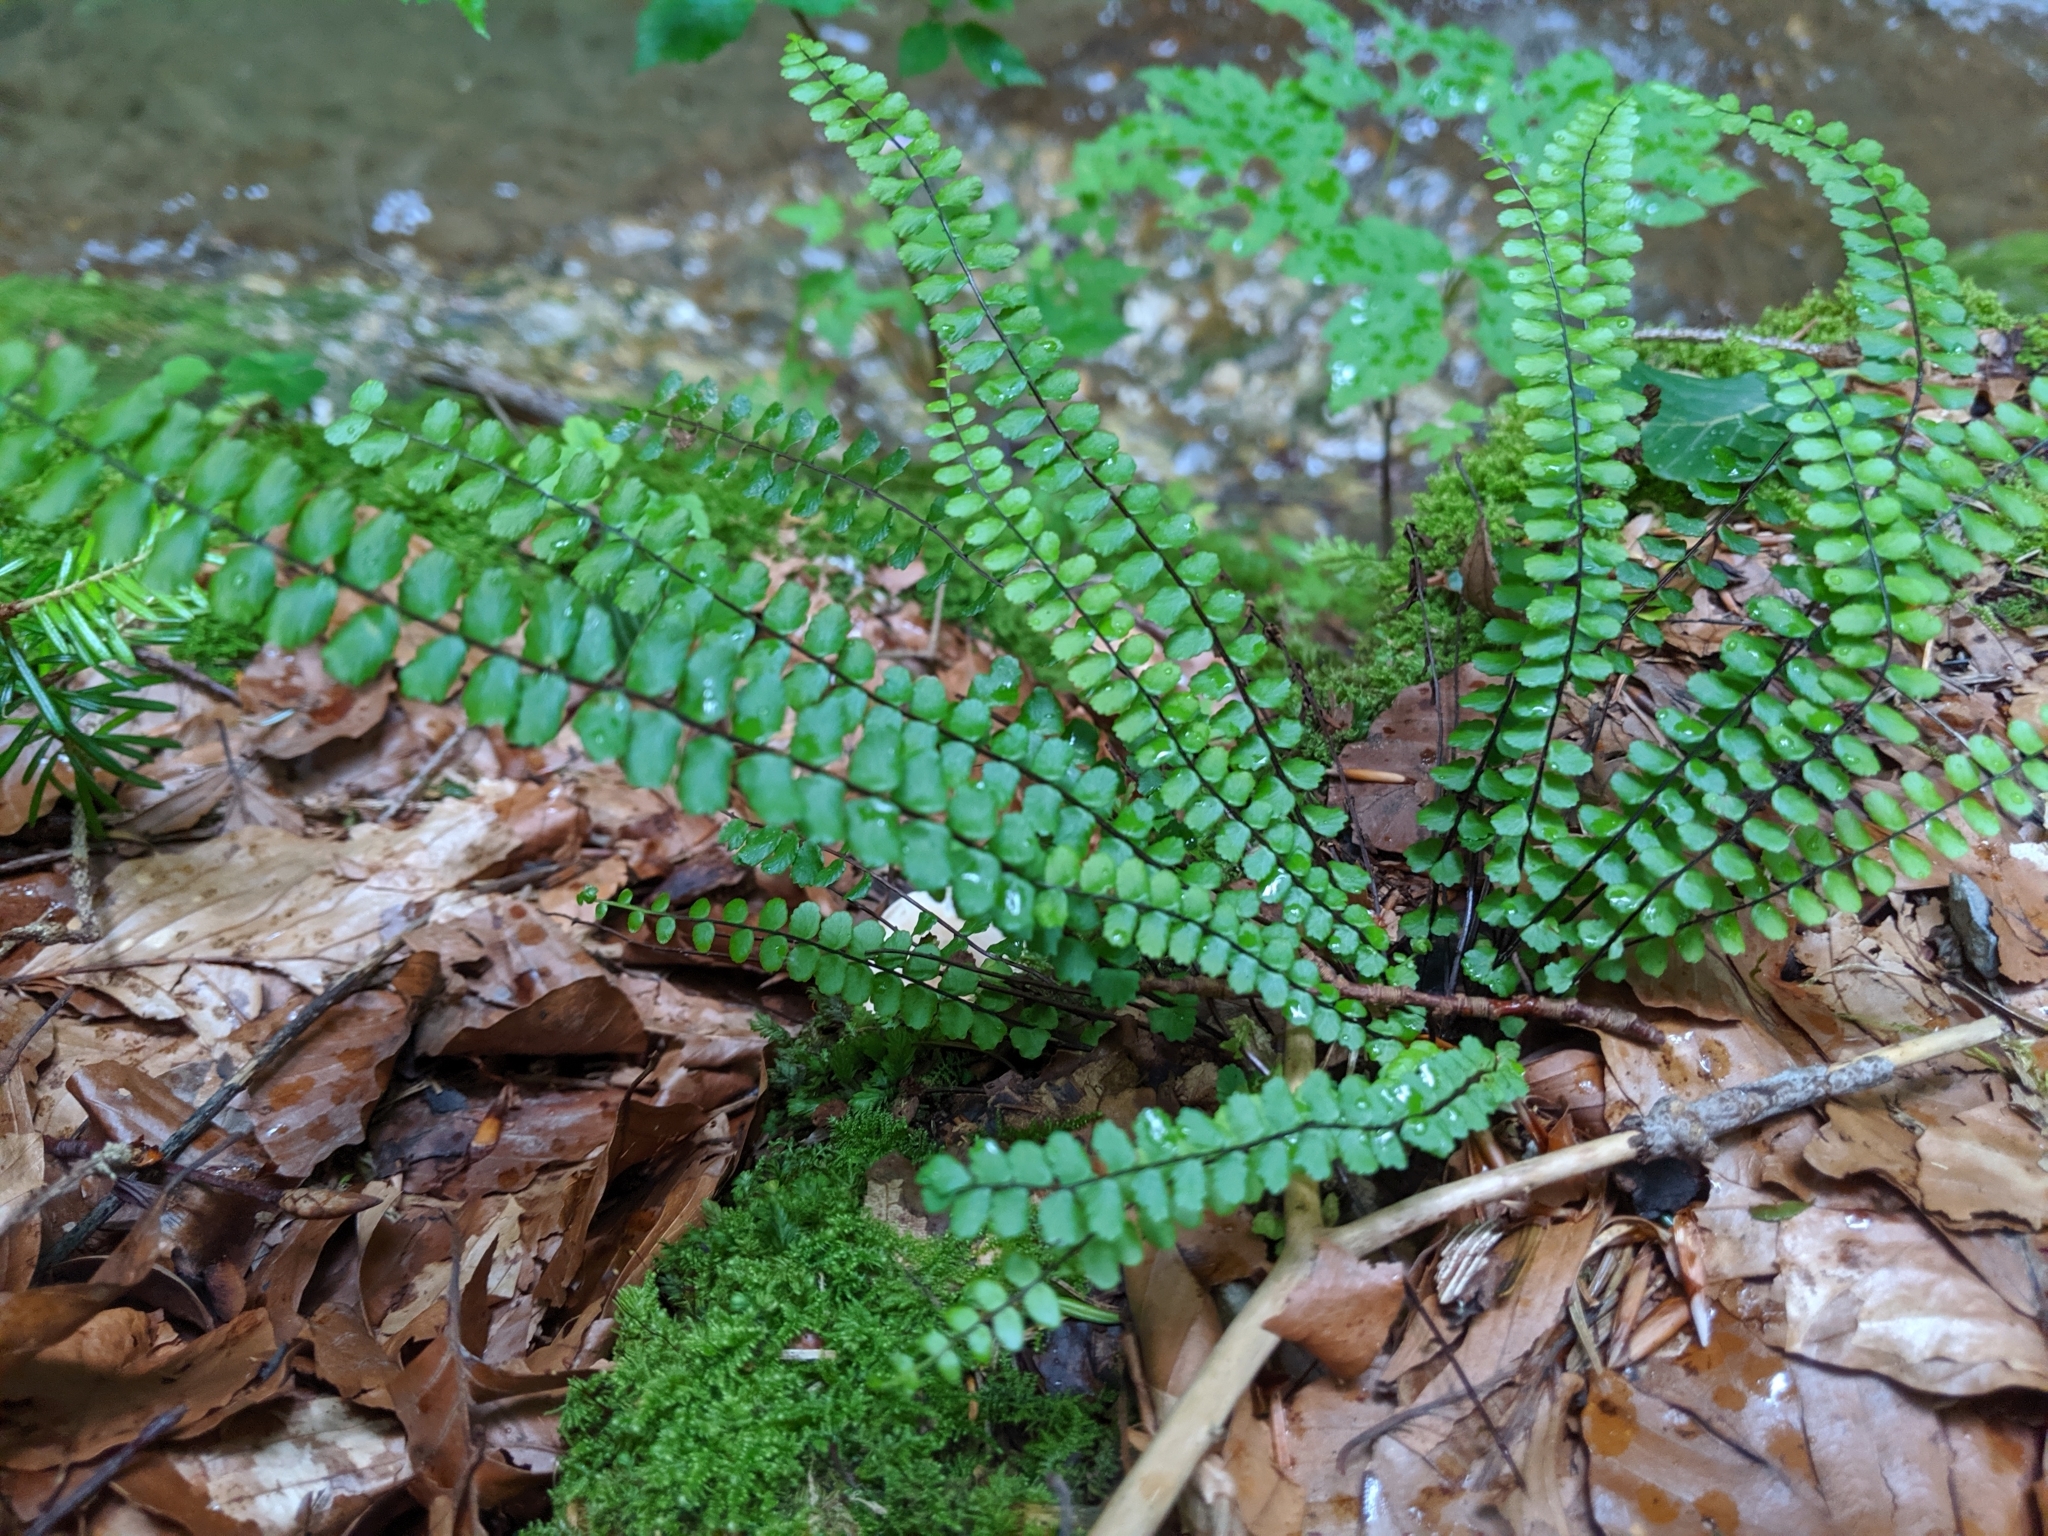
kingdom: Plantae
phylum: Tracheophyta
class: Polypodiopsida
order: Polypodiales
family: Aspleniaceae
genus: Asplenium
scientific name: Asplenium trichomanes
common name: Maidenhair spleenwort
